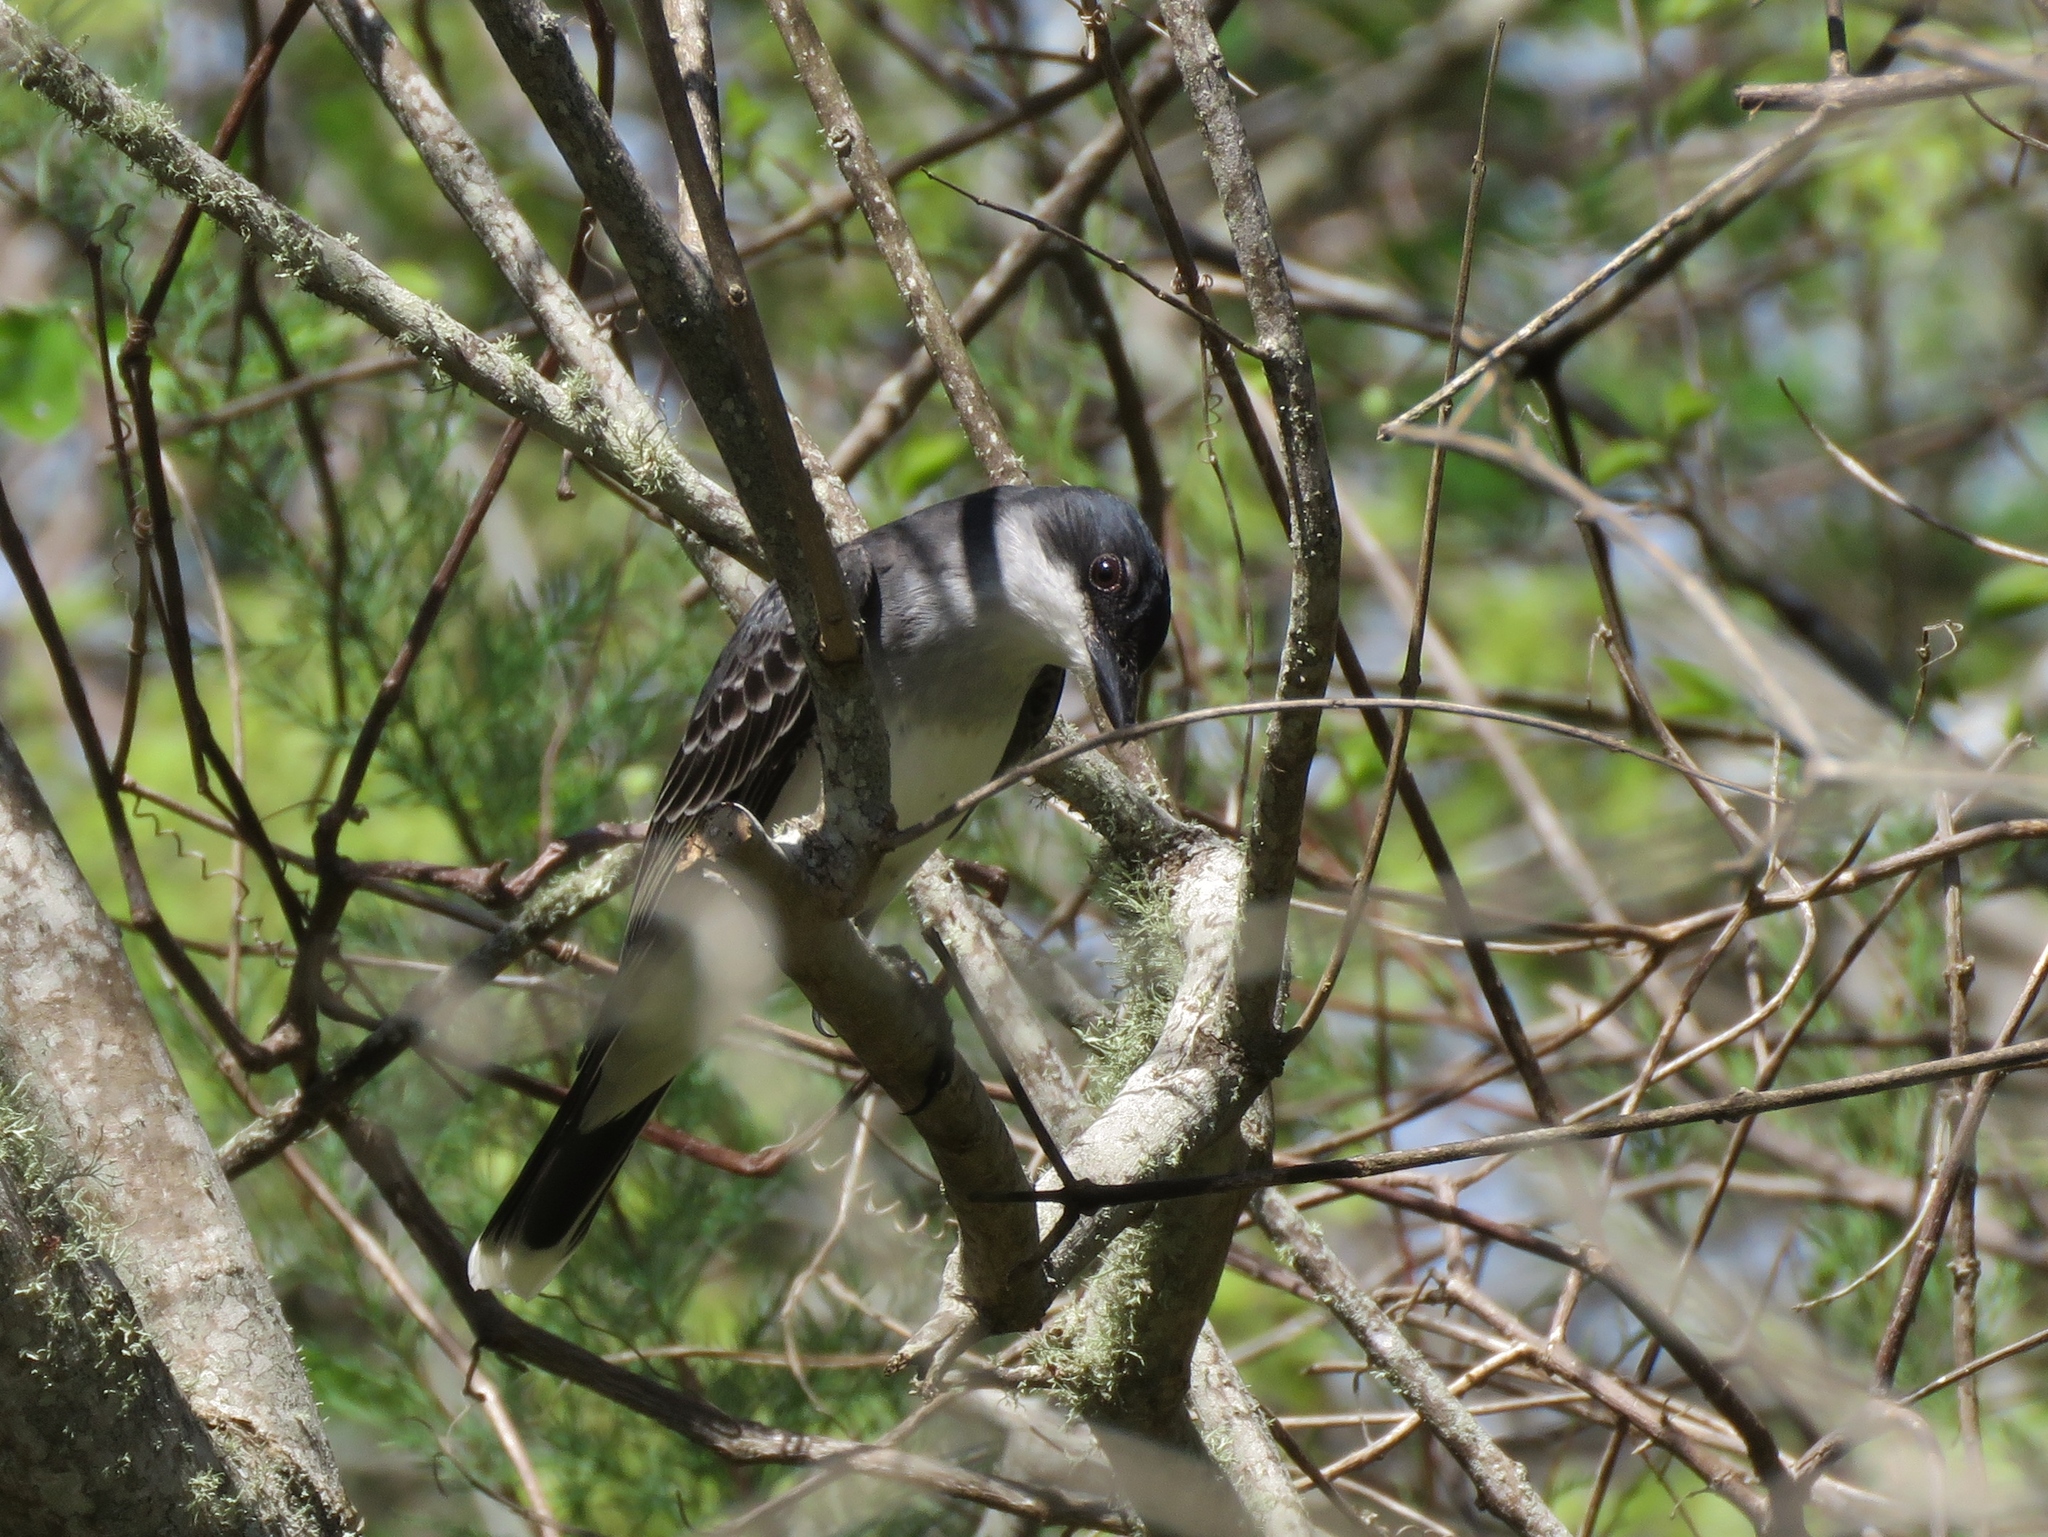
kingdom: Animalia
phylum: Chordata
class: Aves
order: Passeriformes
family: Tyrannidae
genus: Tyrannus
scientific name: Tyrannus tyrannus
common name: Eastern kingbird
